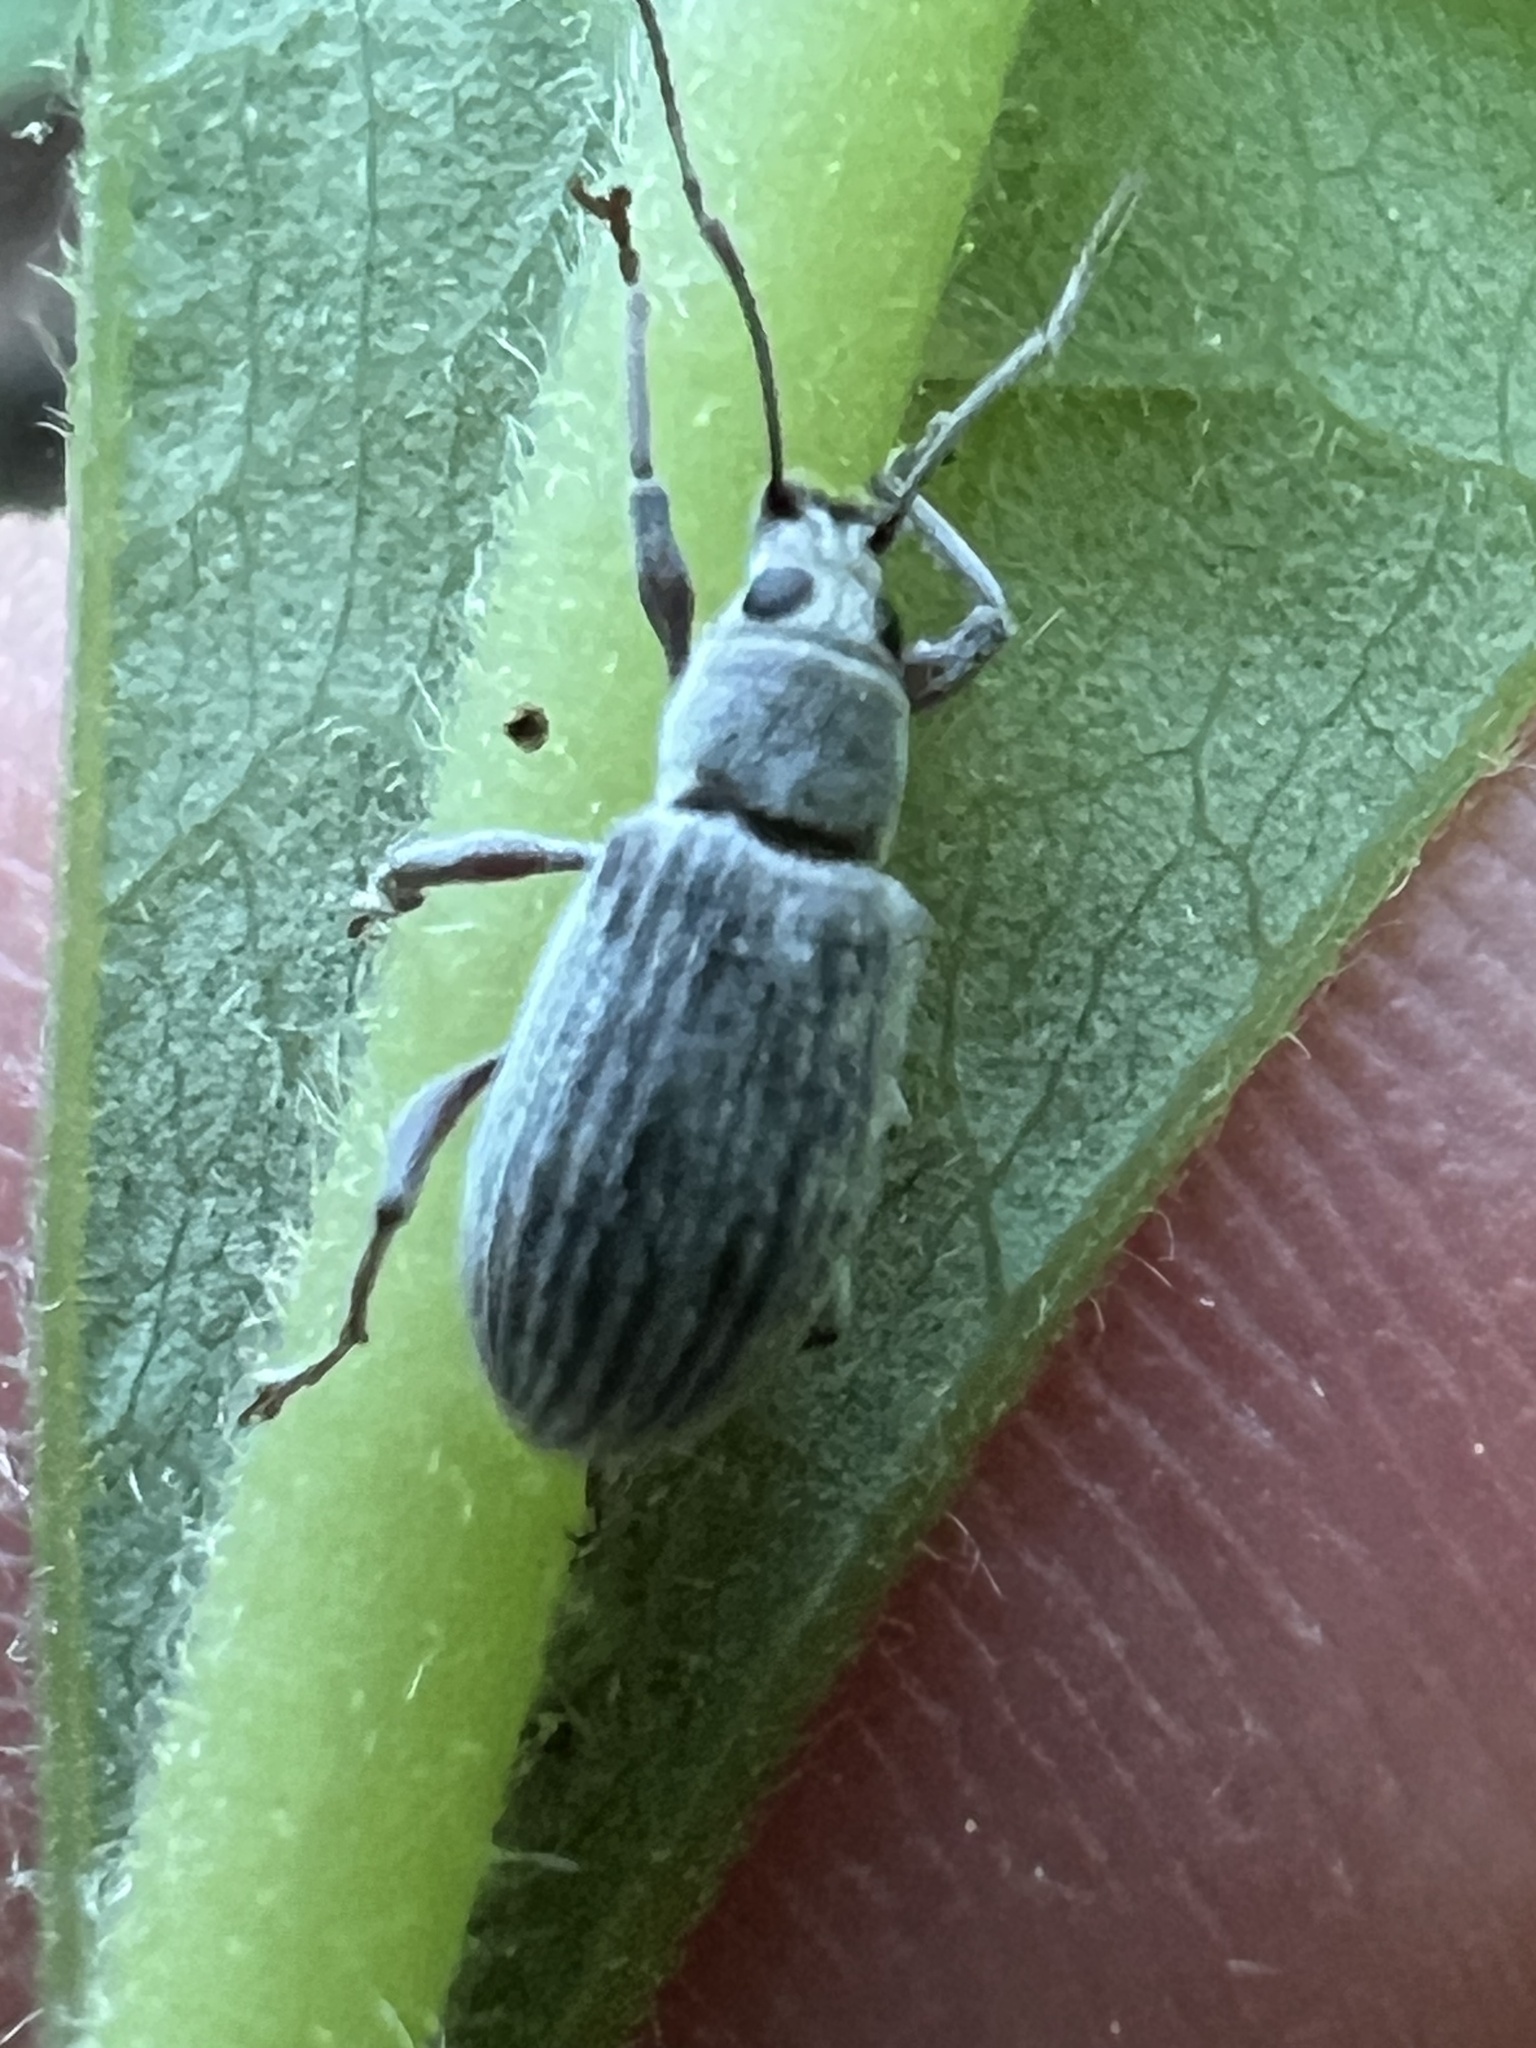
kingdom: Animalia
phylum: Arthropoda
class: Insecta
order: Coleoptera
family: Curculionidae
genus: Cyrtepistomus
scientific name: Cyrtepistomus castaneus
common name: Weevil
